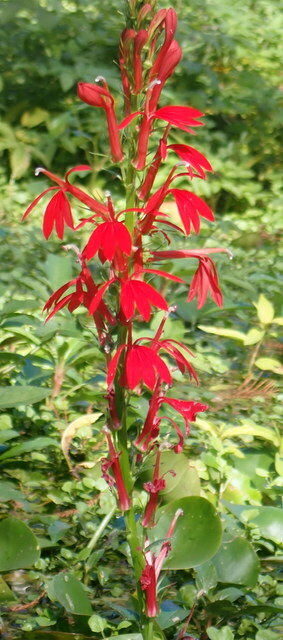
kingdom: Plantae
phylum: Tracheophyta
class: Magnoliopsida
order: Asterales
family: Campanulaceae
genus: Lobelia
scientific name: Lobelia cardinalis
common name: Cardinal flower
